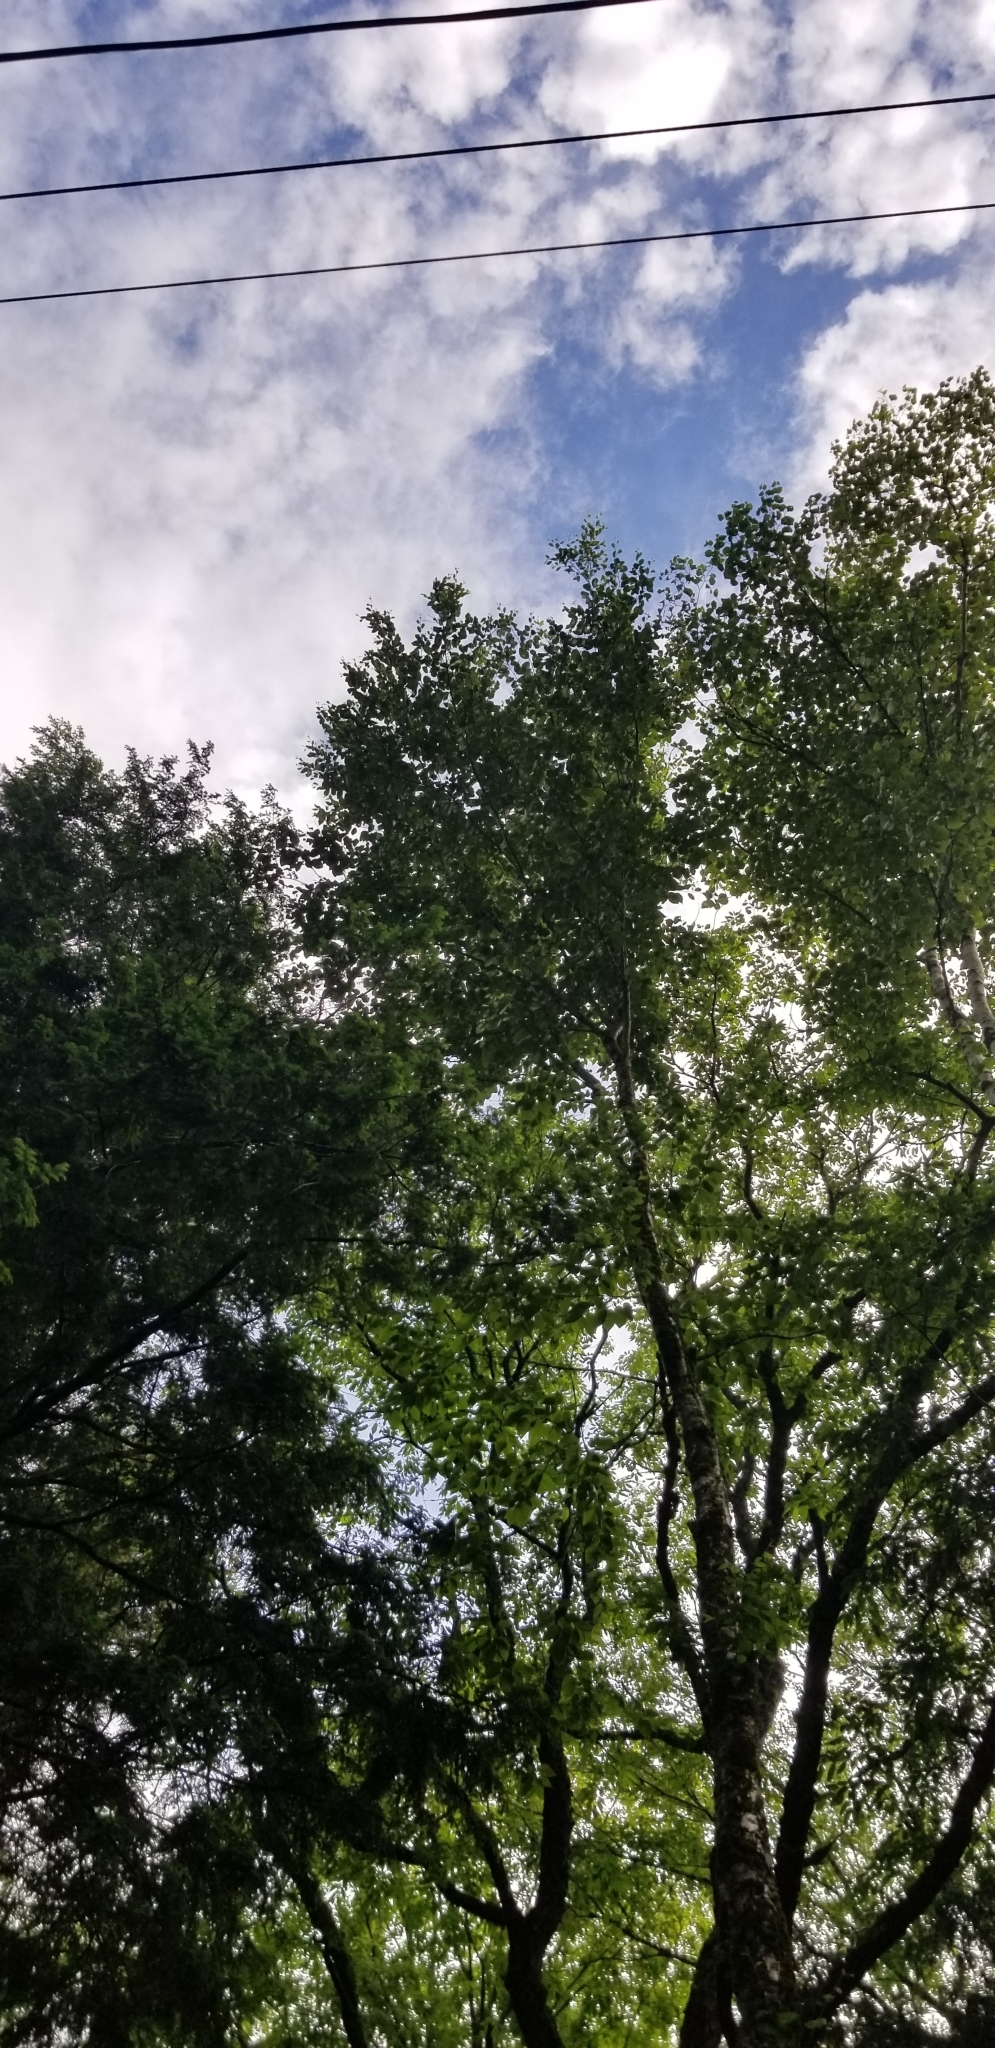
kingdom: Plantae
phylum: Tracheophyta
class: Magnoliopsida
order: Fagales
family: Betulaceae
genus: Betula
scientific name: Betula alleghaniensis
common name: Yellow birch
